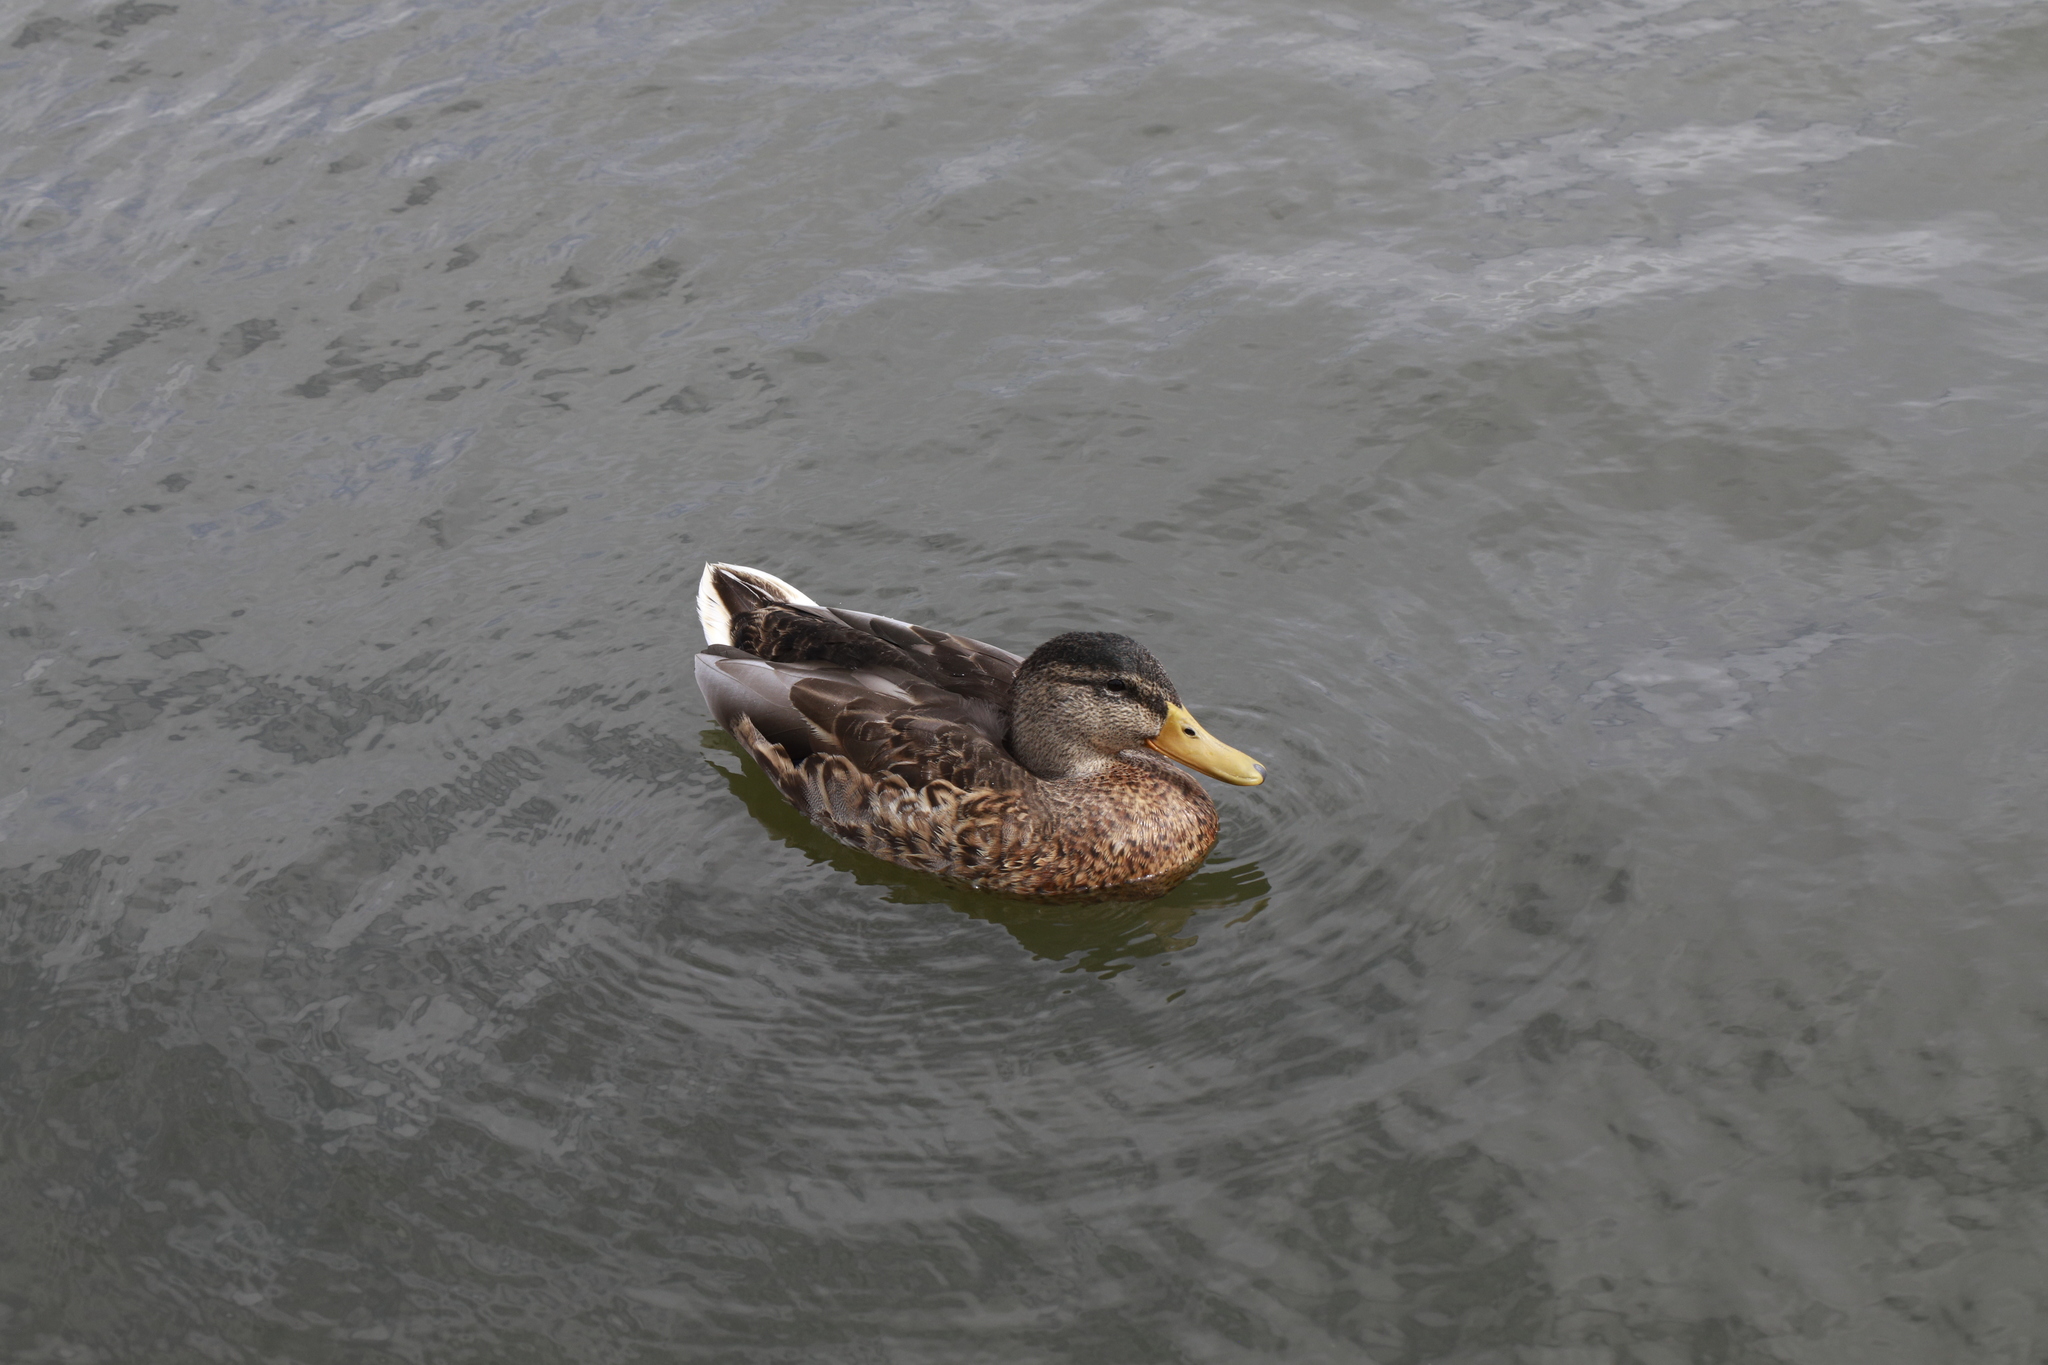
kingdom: Animalia
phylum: Chordata
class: Aves
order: Anseriformes
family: Anatidae
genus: Anas
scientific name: Anas platyrhynchos
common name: Mallard
